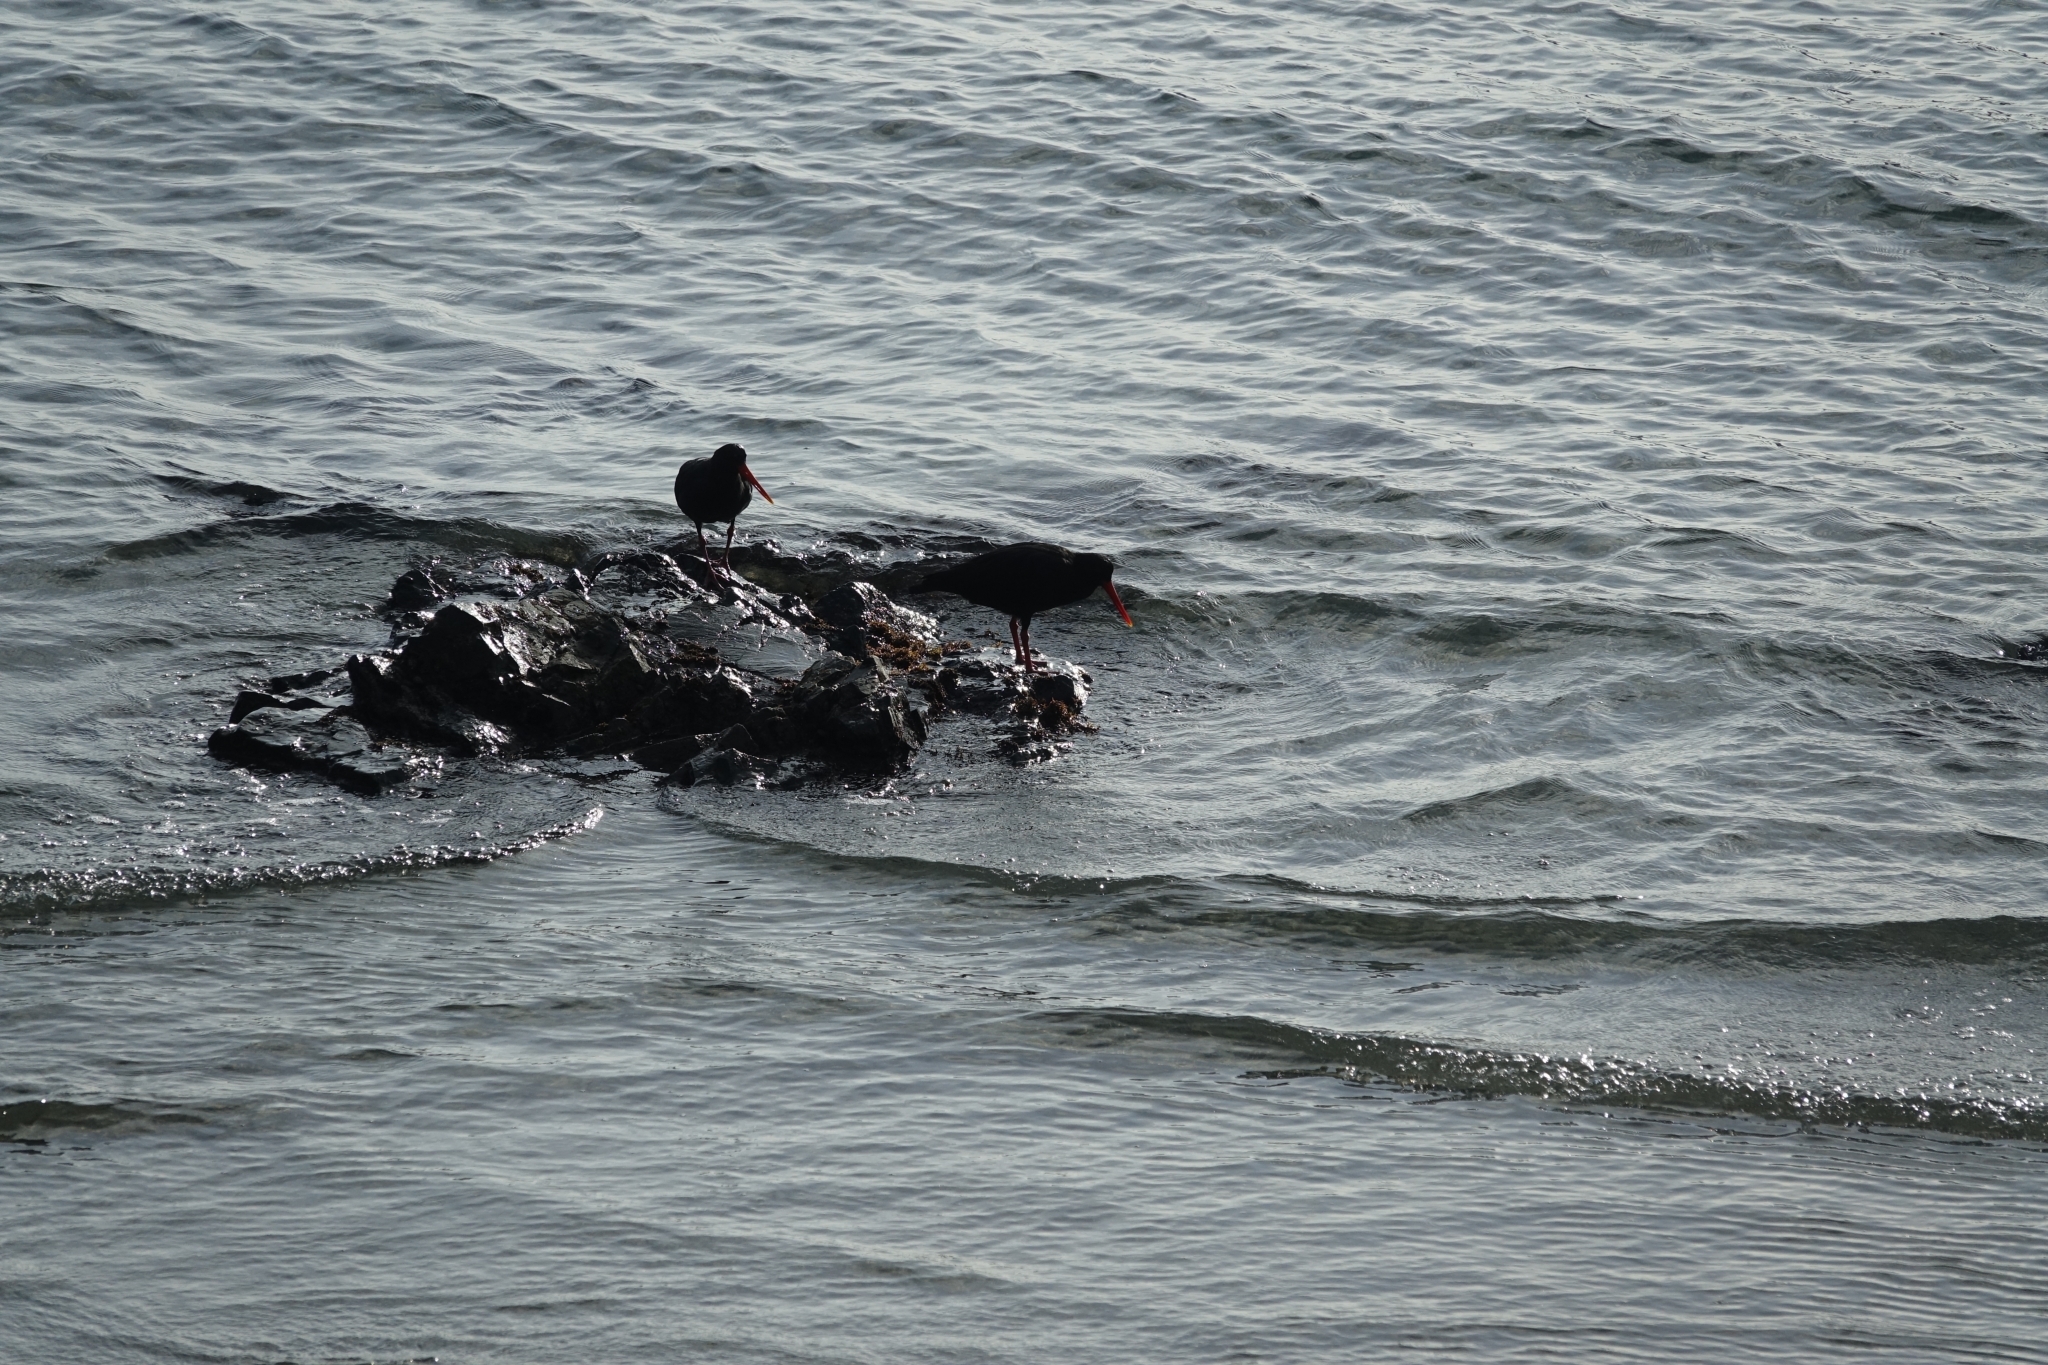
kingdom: Animalia
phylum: Chordata
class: Aves
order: Charadriiformes
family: Haematopodidae
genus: Haematopus
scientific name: Haematopus unicolor
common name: Variable oystercatcher
